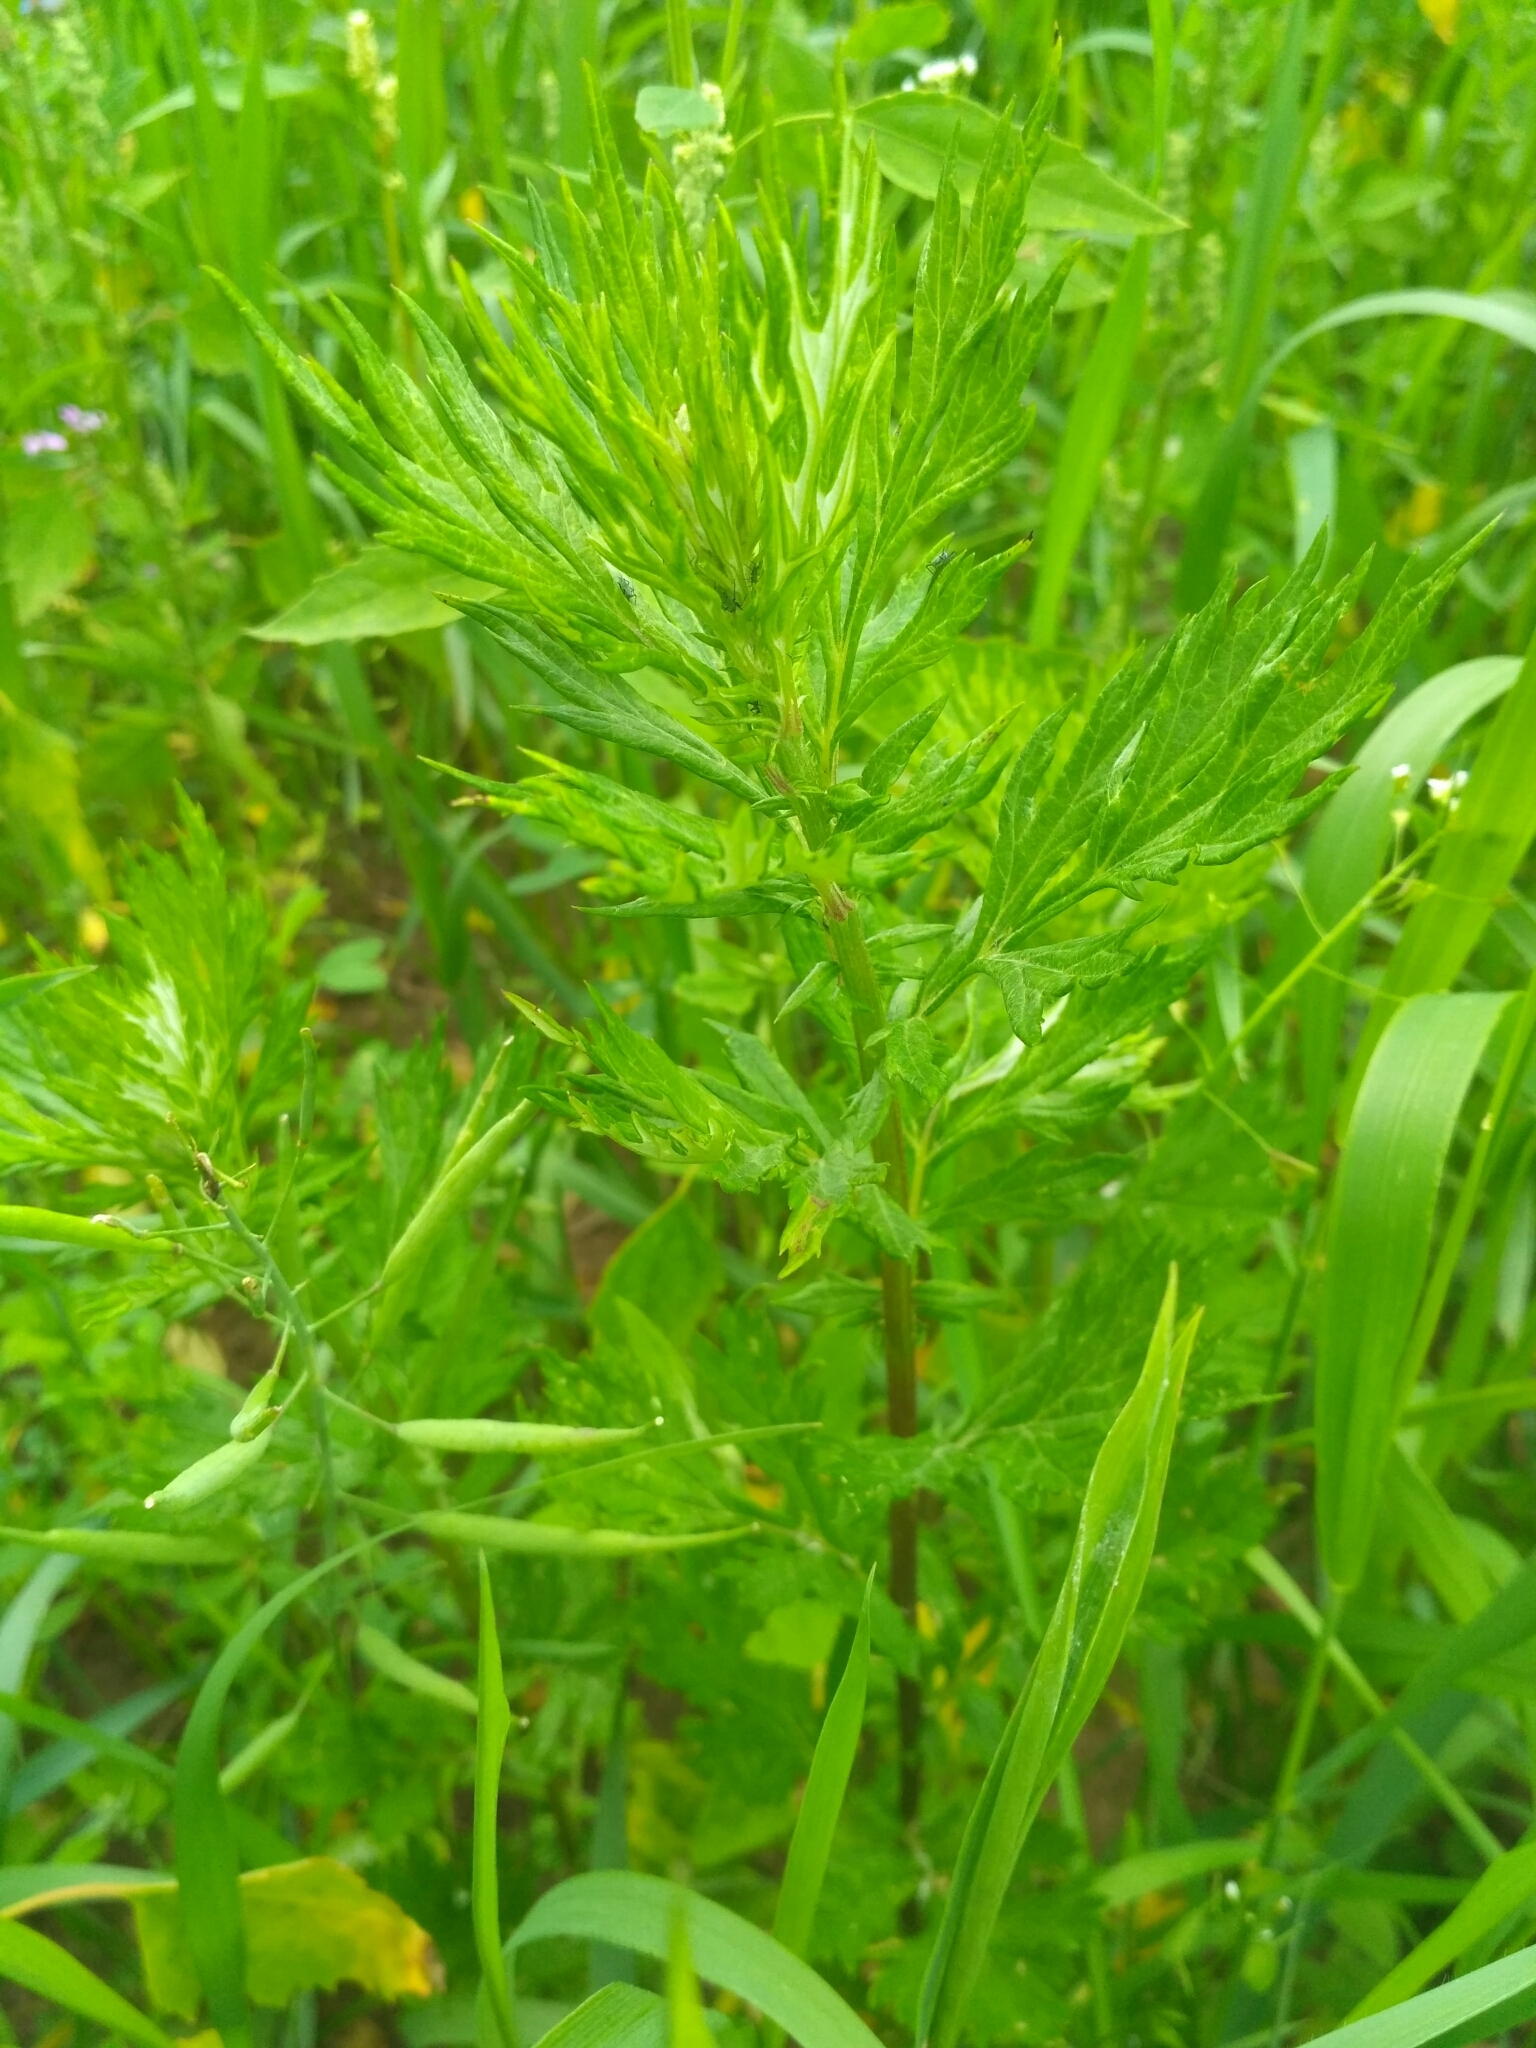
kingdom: Plantae
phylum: Tracheophyta
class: Magnoliopsida
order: Asterales
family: Asteraceae
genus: Artemisia
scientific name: Artemisia vulgaris
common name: Mugwort
